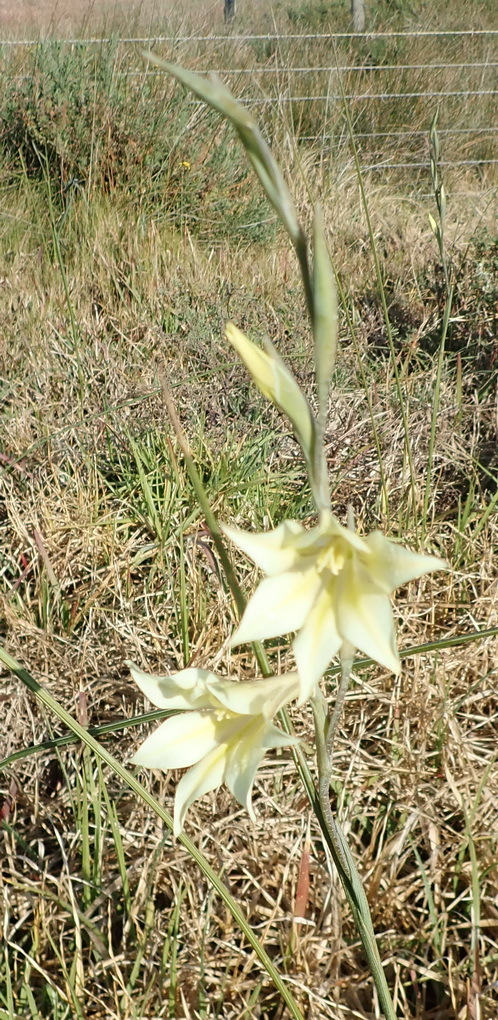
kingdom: Plantae
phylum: Tracheophyta
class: Liliopsida
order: Asparagales
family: Iridaceae
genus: Gladiolus
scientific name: Gladiolus tristis
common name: Ever-flowering gladiolus
